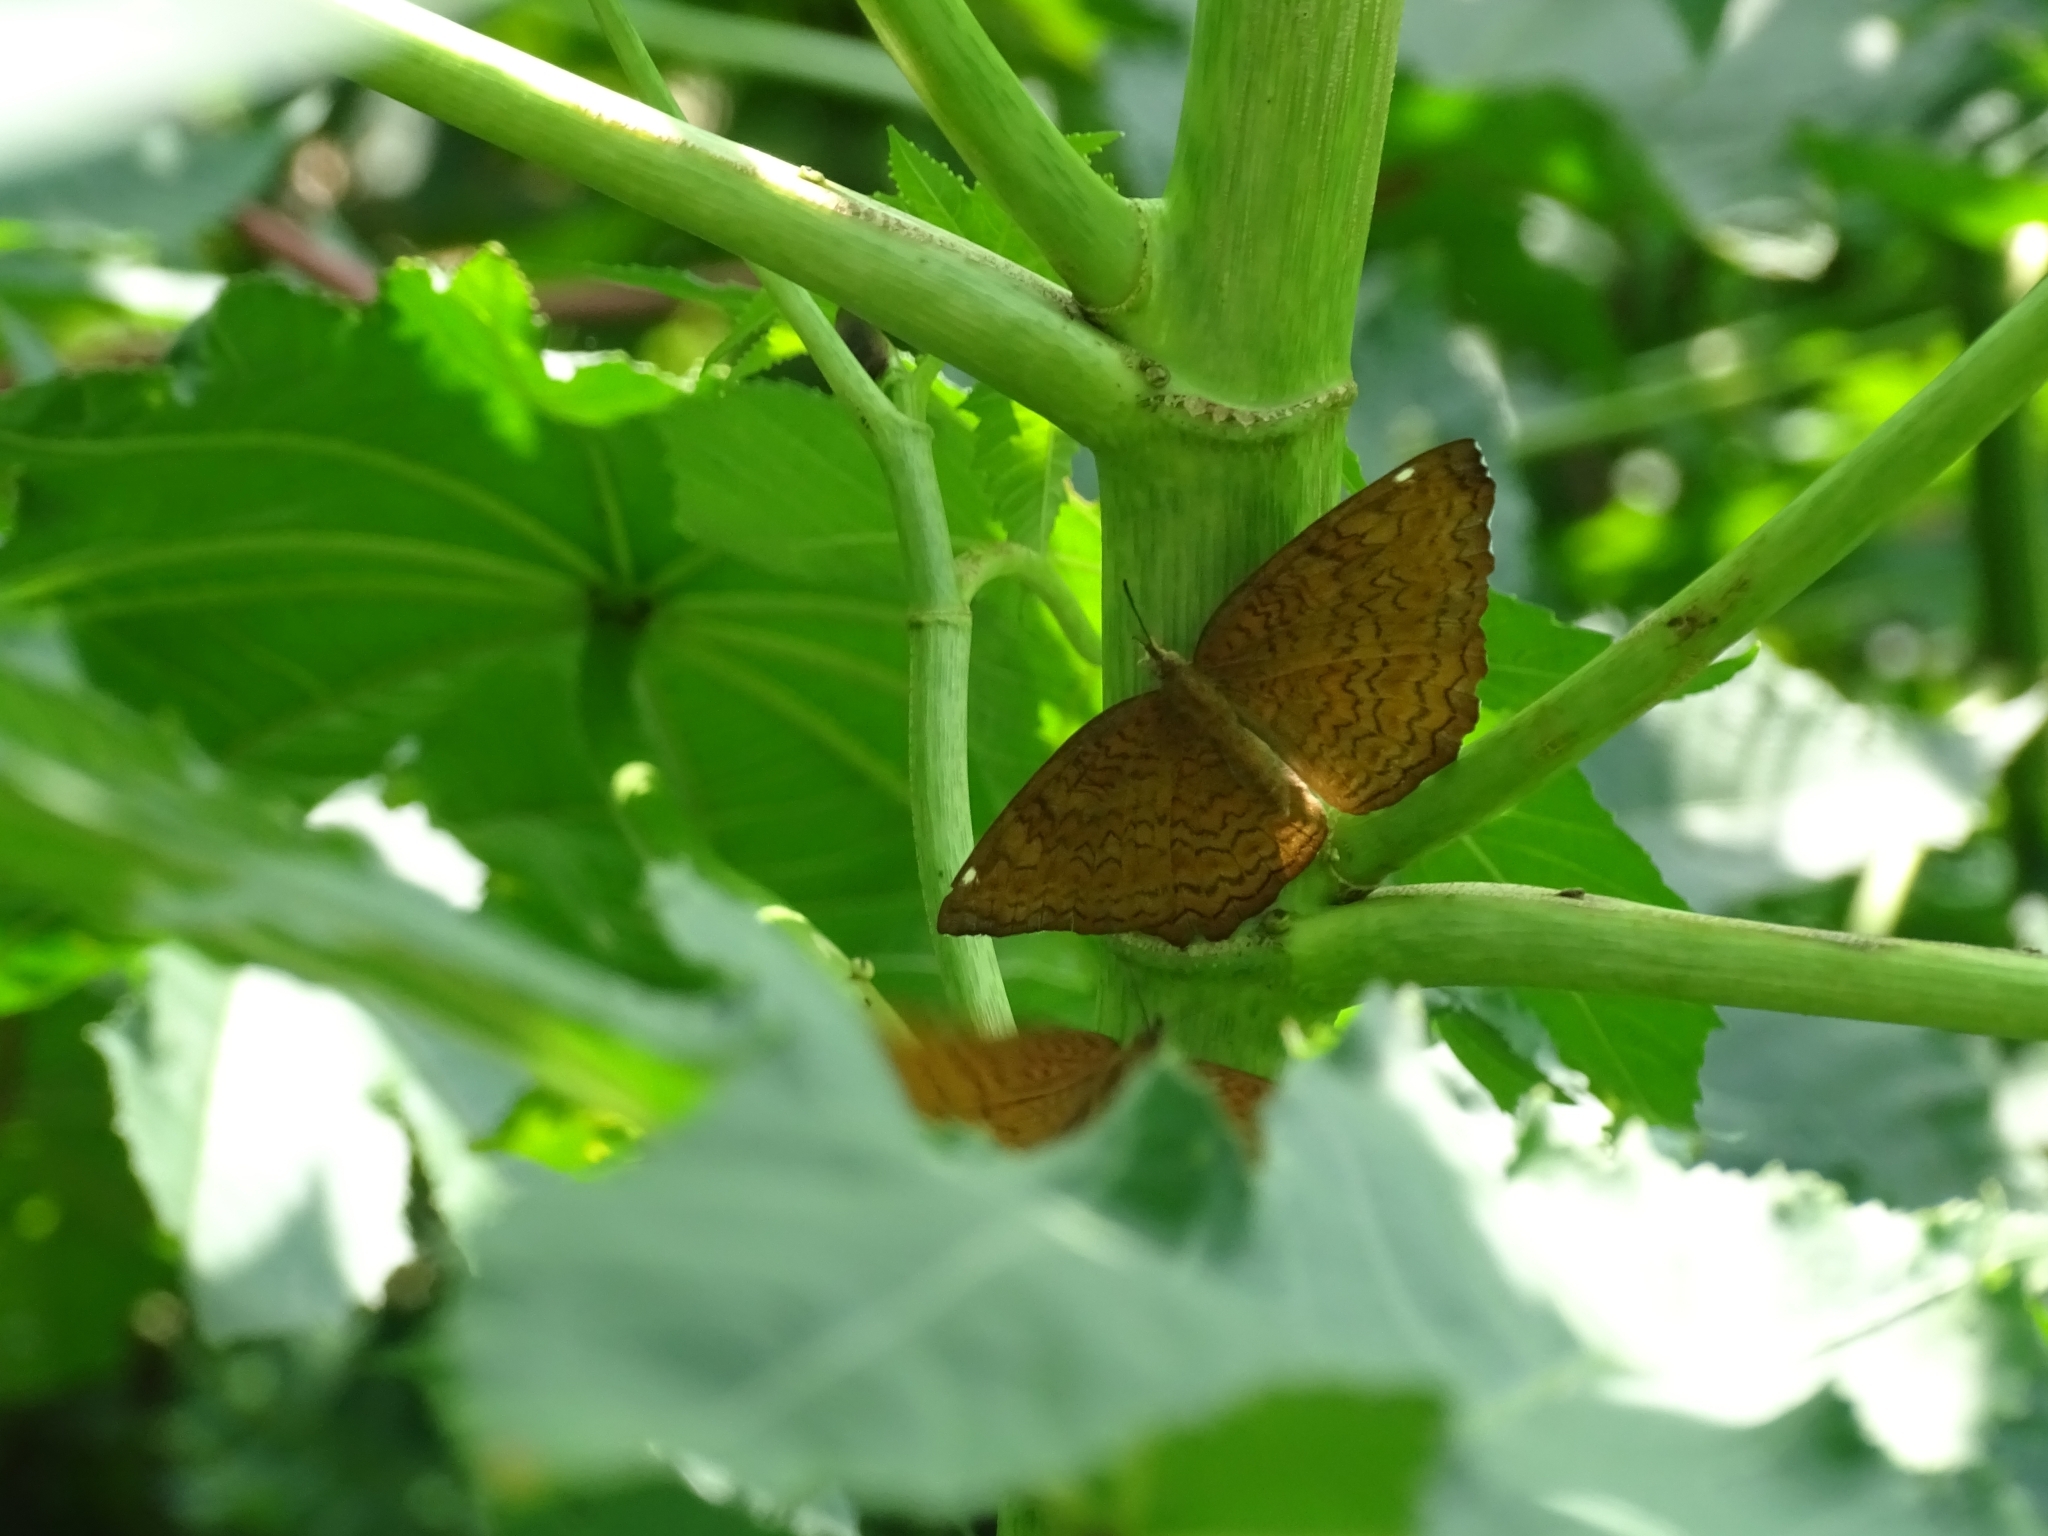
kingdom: Animalia
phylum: Arthropoda
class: Insecta
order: Lepidoptera
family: Nymphalidae
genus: Ariadne
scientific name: Ariadne merione
